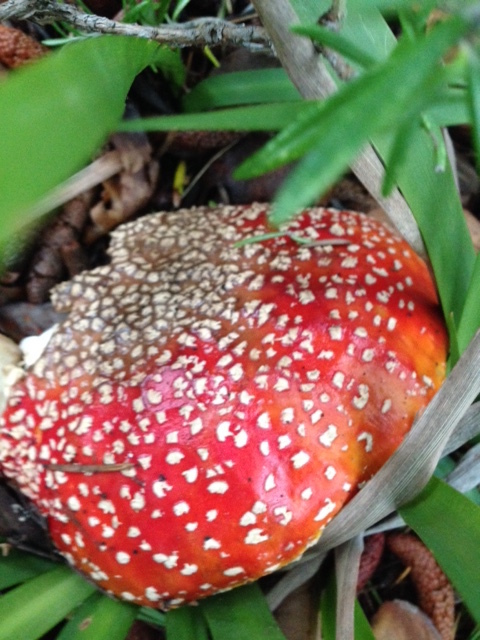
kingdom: Fungi
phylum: Basidiomycota
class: Agaricomycetes
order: Agaricales
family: Amanitaceae
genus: Amanita
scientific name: Amanita muscaria
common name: Fly agaric
